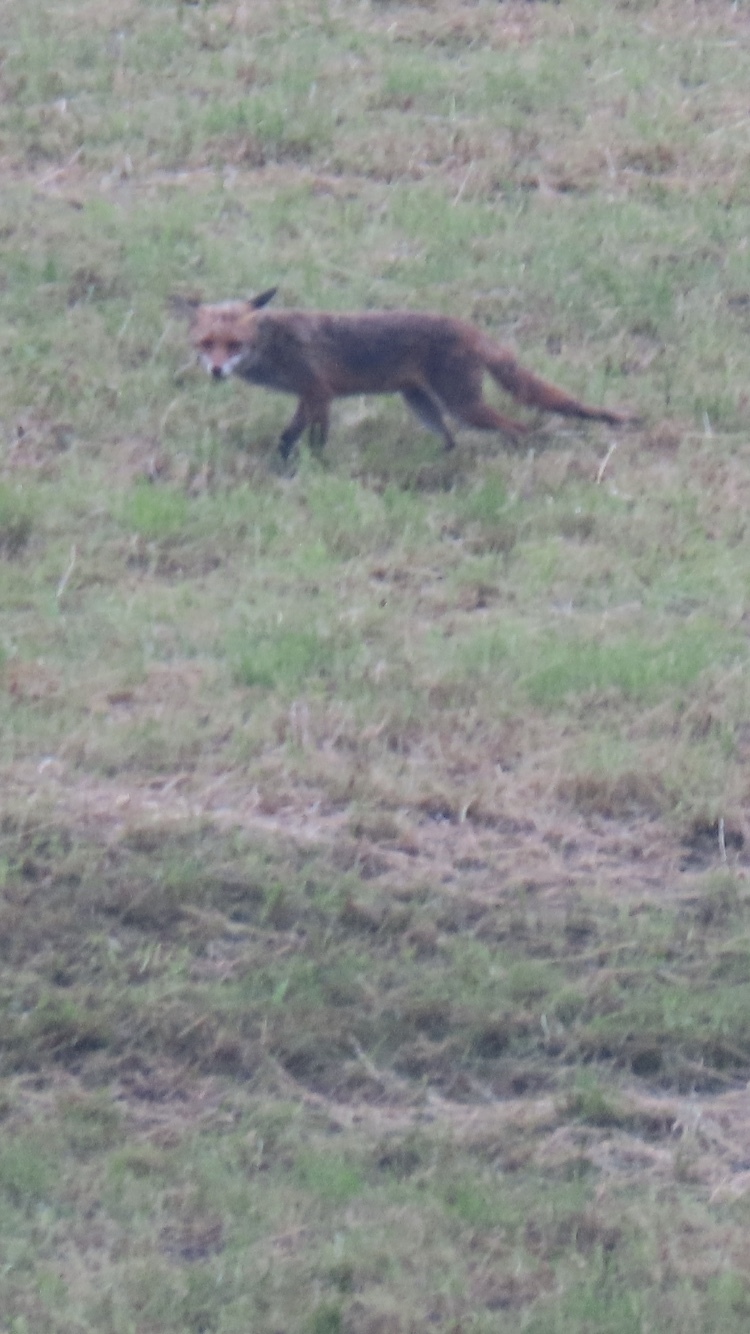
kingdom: Animalia
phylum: Chordata
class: Mammalia
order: Carnivora
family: Canidae
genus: Vulpes
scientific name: Vulpes vulpes
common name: Red fox
